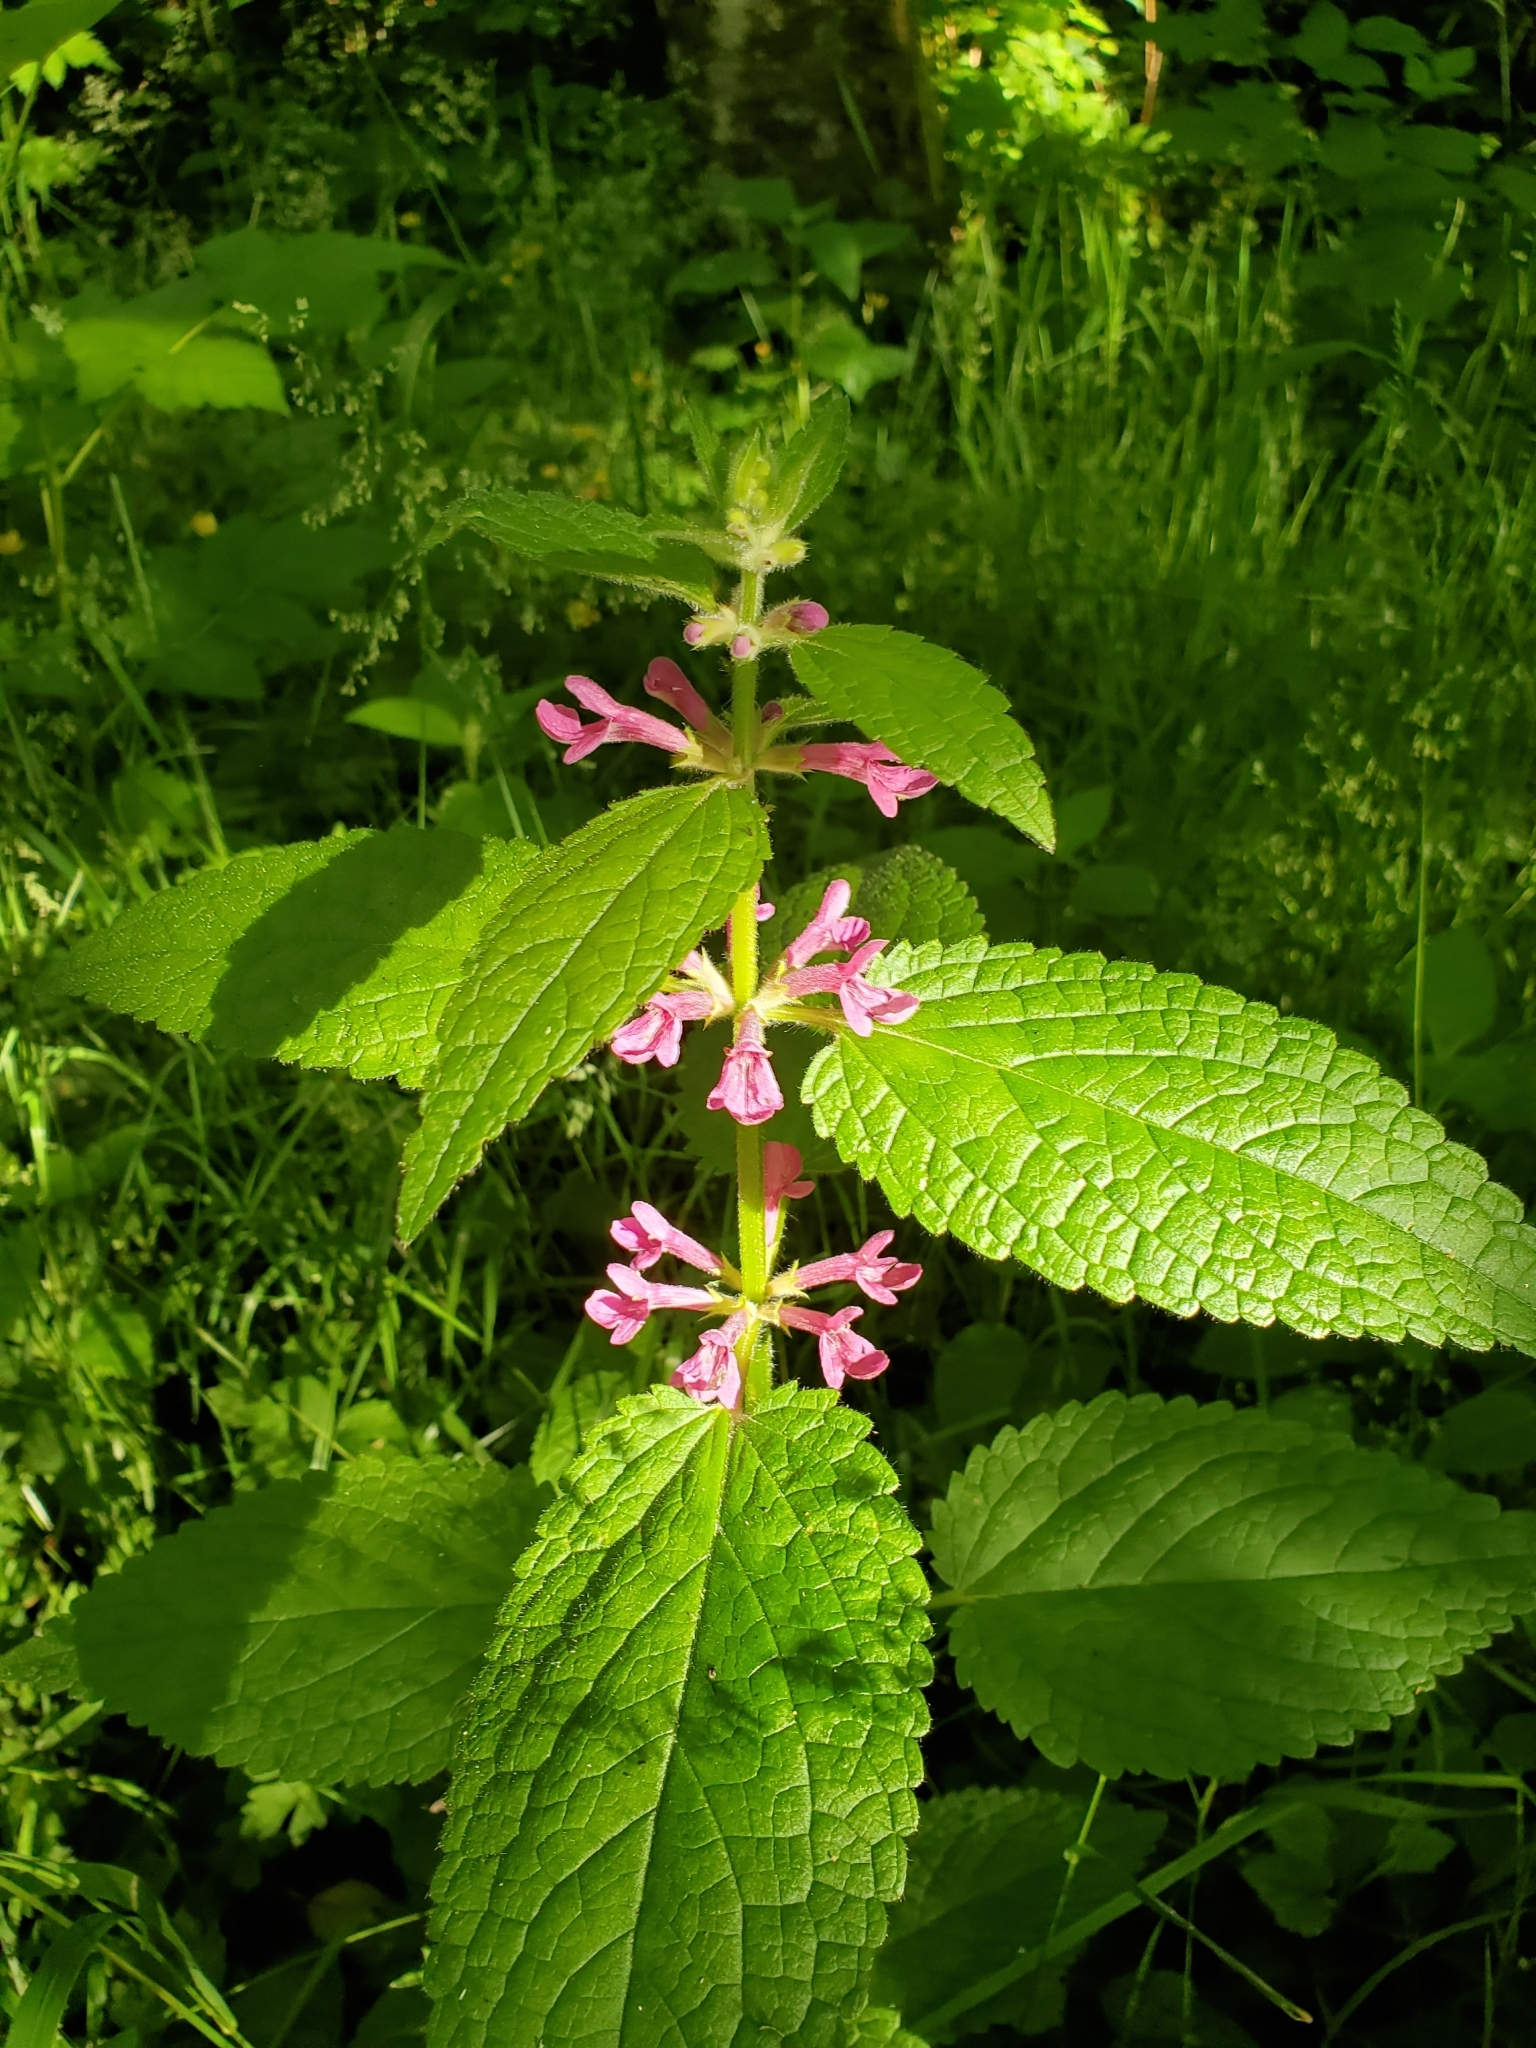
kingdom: Plantae
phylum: Tracheophyta
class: Magnoliopsida
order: Lamiales
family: Lamiaceae
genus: Stachys
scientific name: Stachys chamissonis
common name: Coastal hedge-nettle
